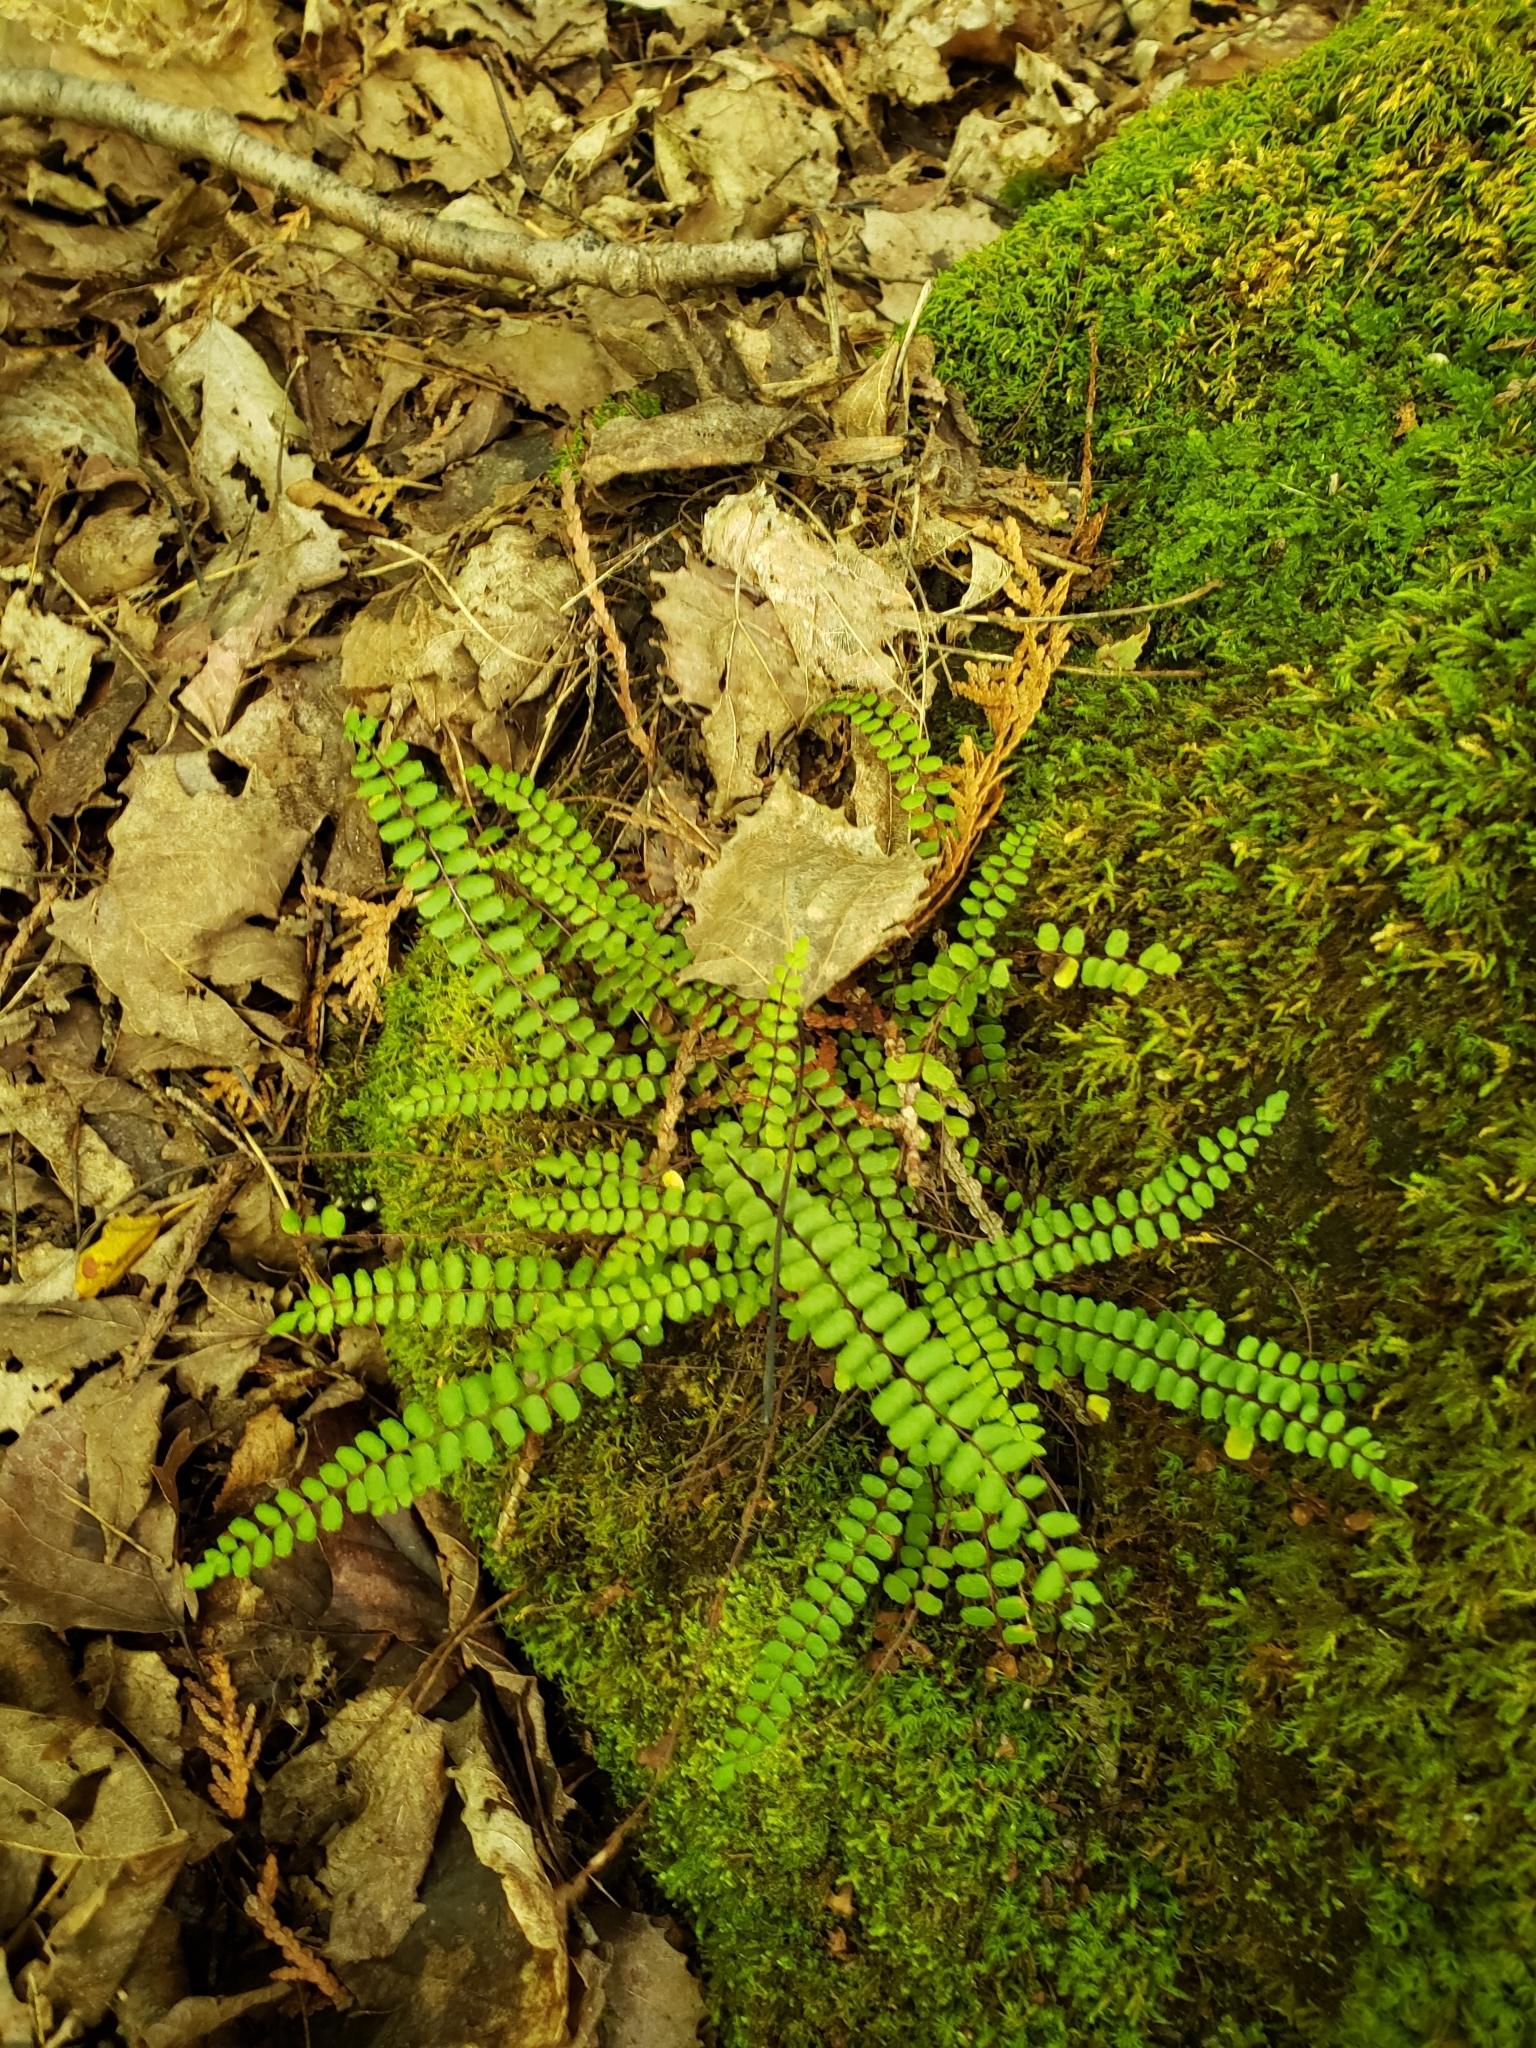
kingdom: Plantae
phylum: Tracheophyta
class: Polypodiopsida
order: Polypodiales
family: Aspleniaceae
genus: Asplenium
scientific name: Asplenium trichomanes
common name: Maidenhair spleenwort
